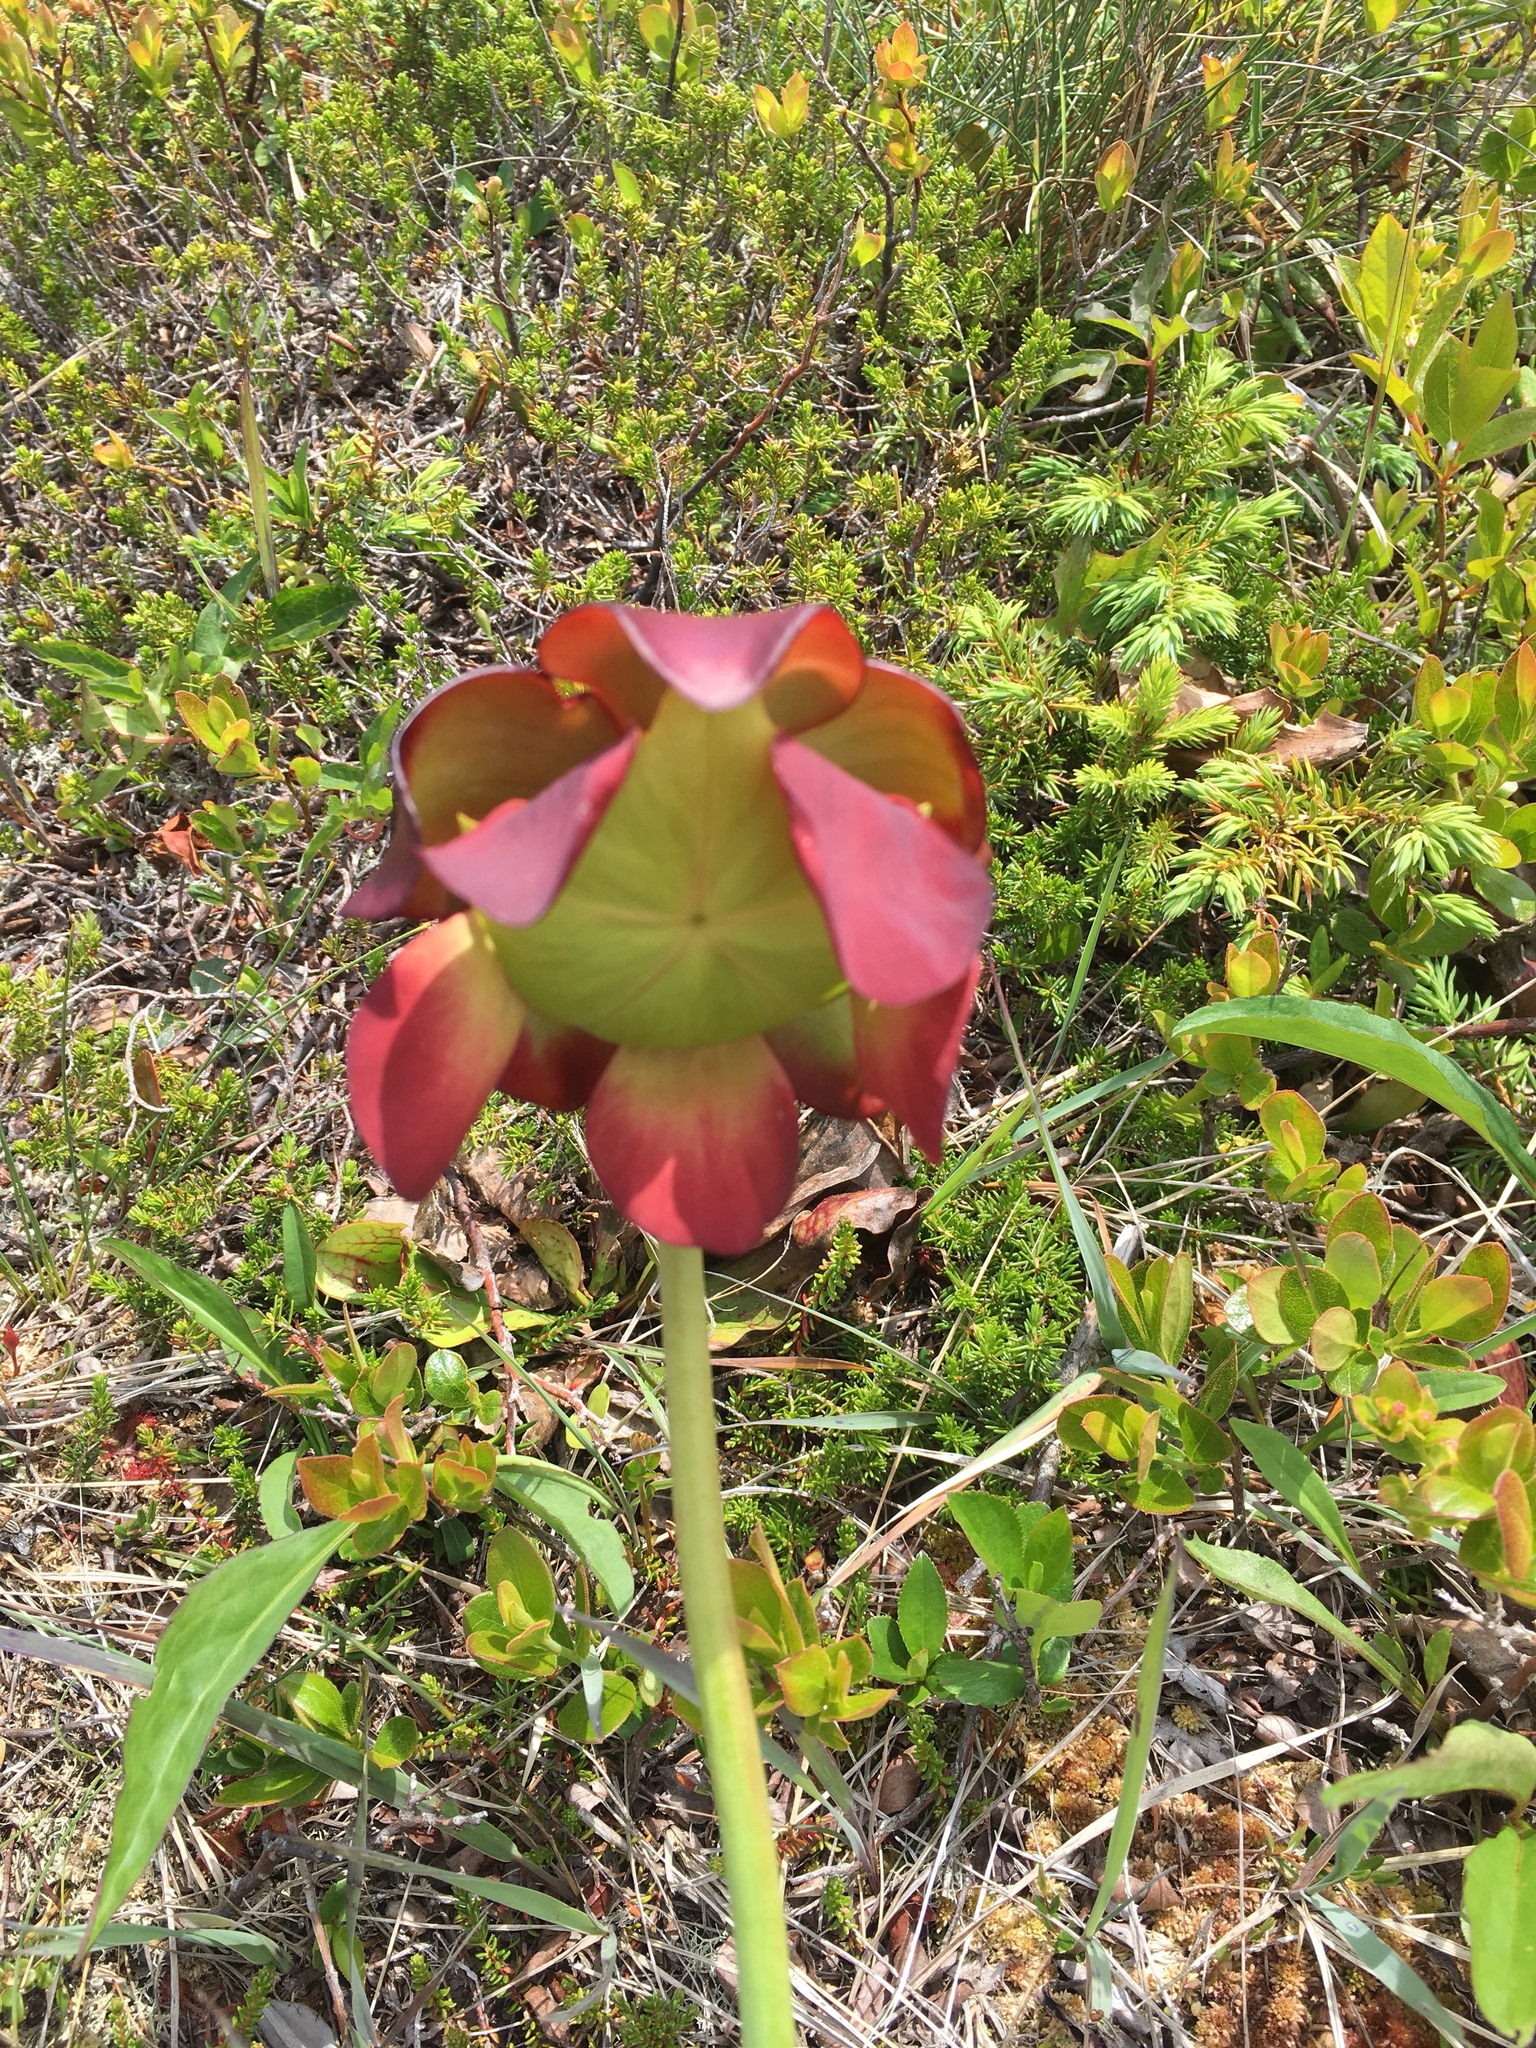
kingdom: Plantae
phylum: Tracheophyta
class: Magnoliopsida
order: Ericales
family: Sarraceniaceae
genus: Sarracenia
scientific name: Sarracenia purpurea
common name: Pitcherplant
